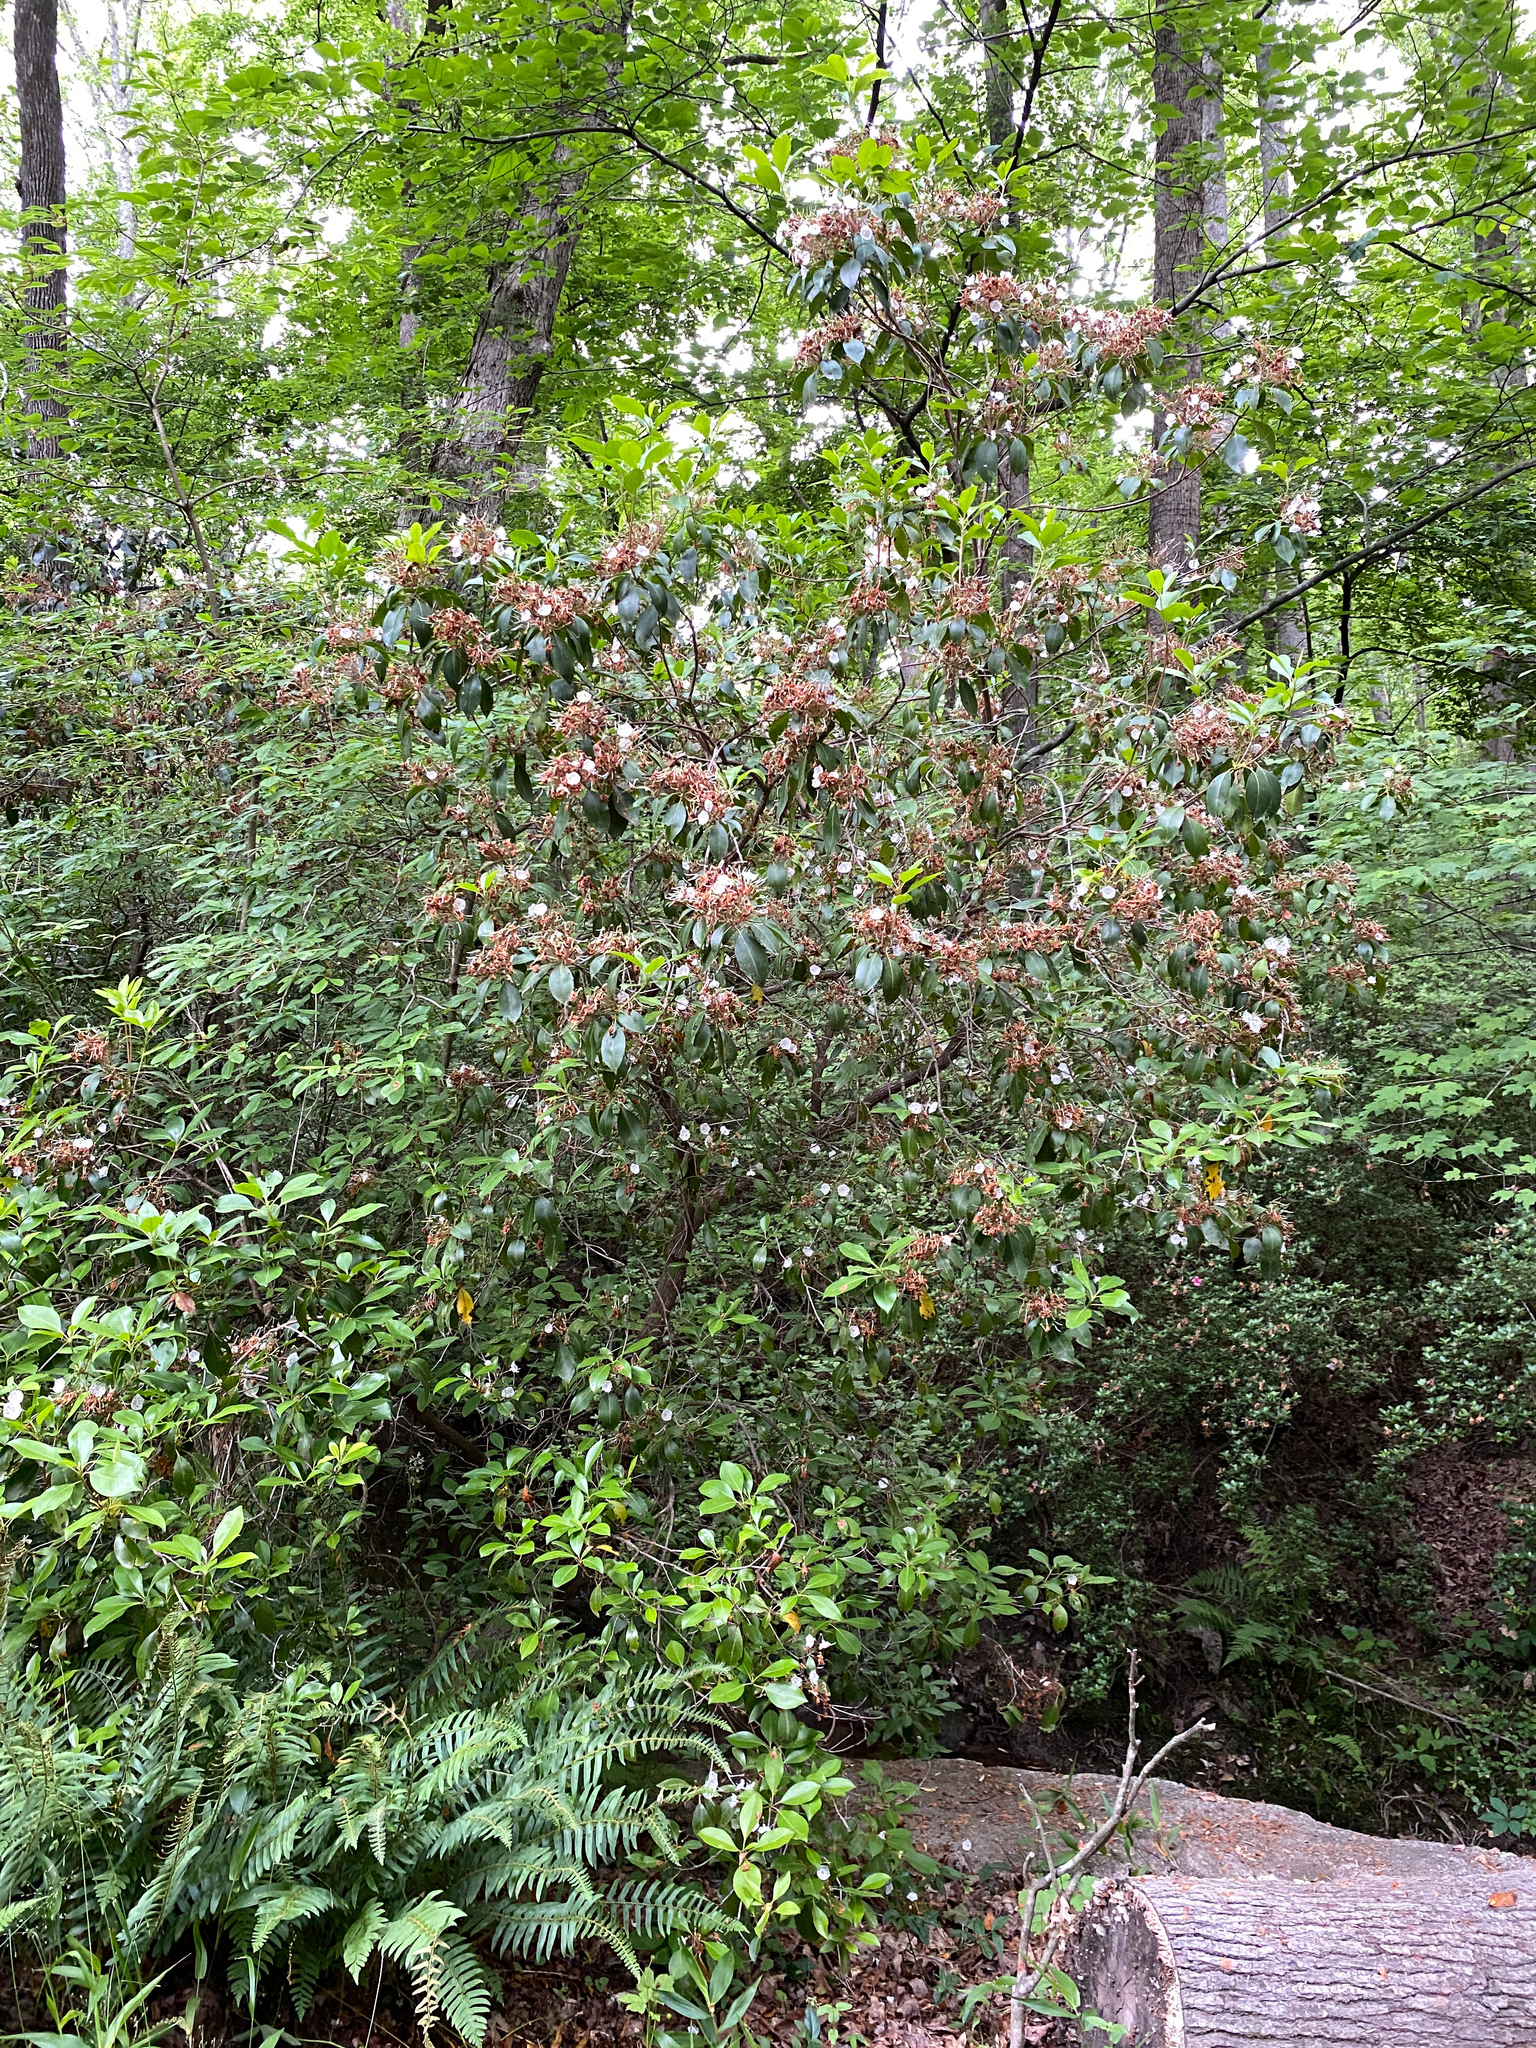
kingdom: Plantae
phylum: Tracheophyta
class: Magnoliopsida
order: Ericales
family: Ericaceae
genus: Kalmia
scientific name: Kalmia latifolia
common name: Mountain-laurel
